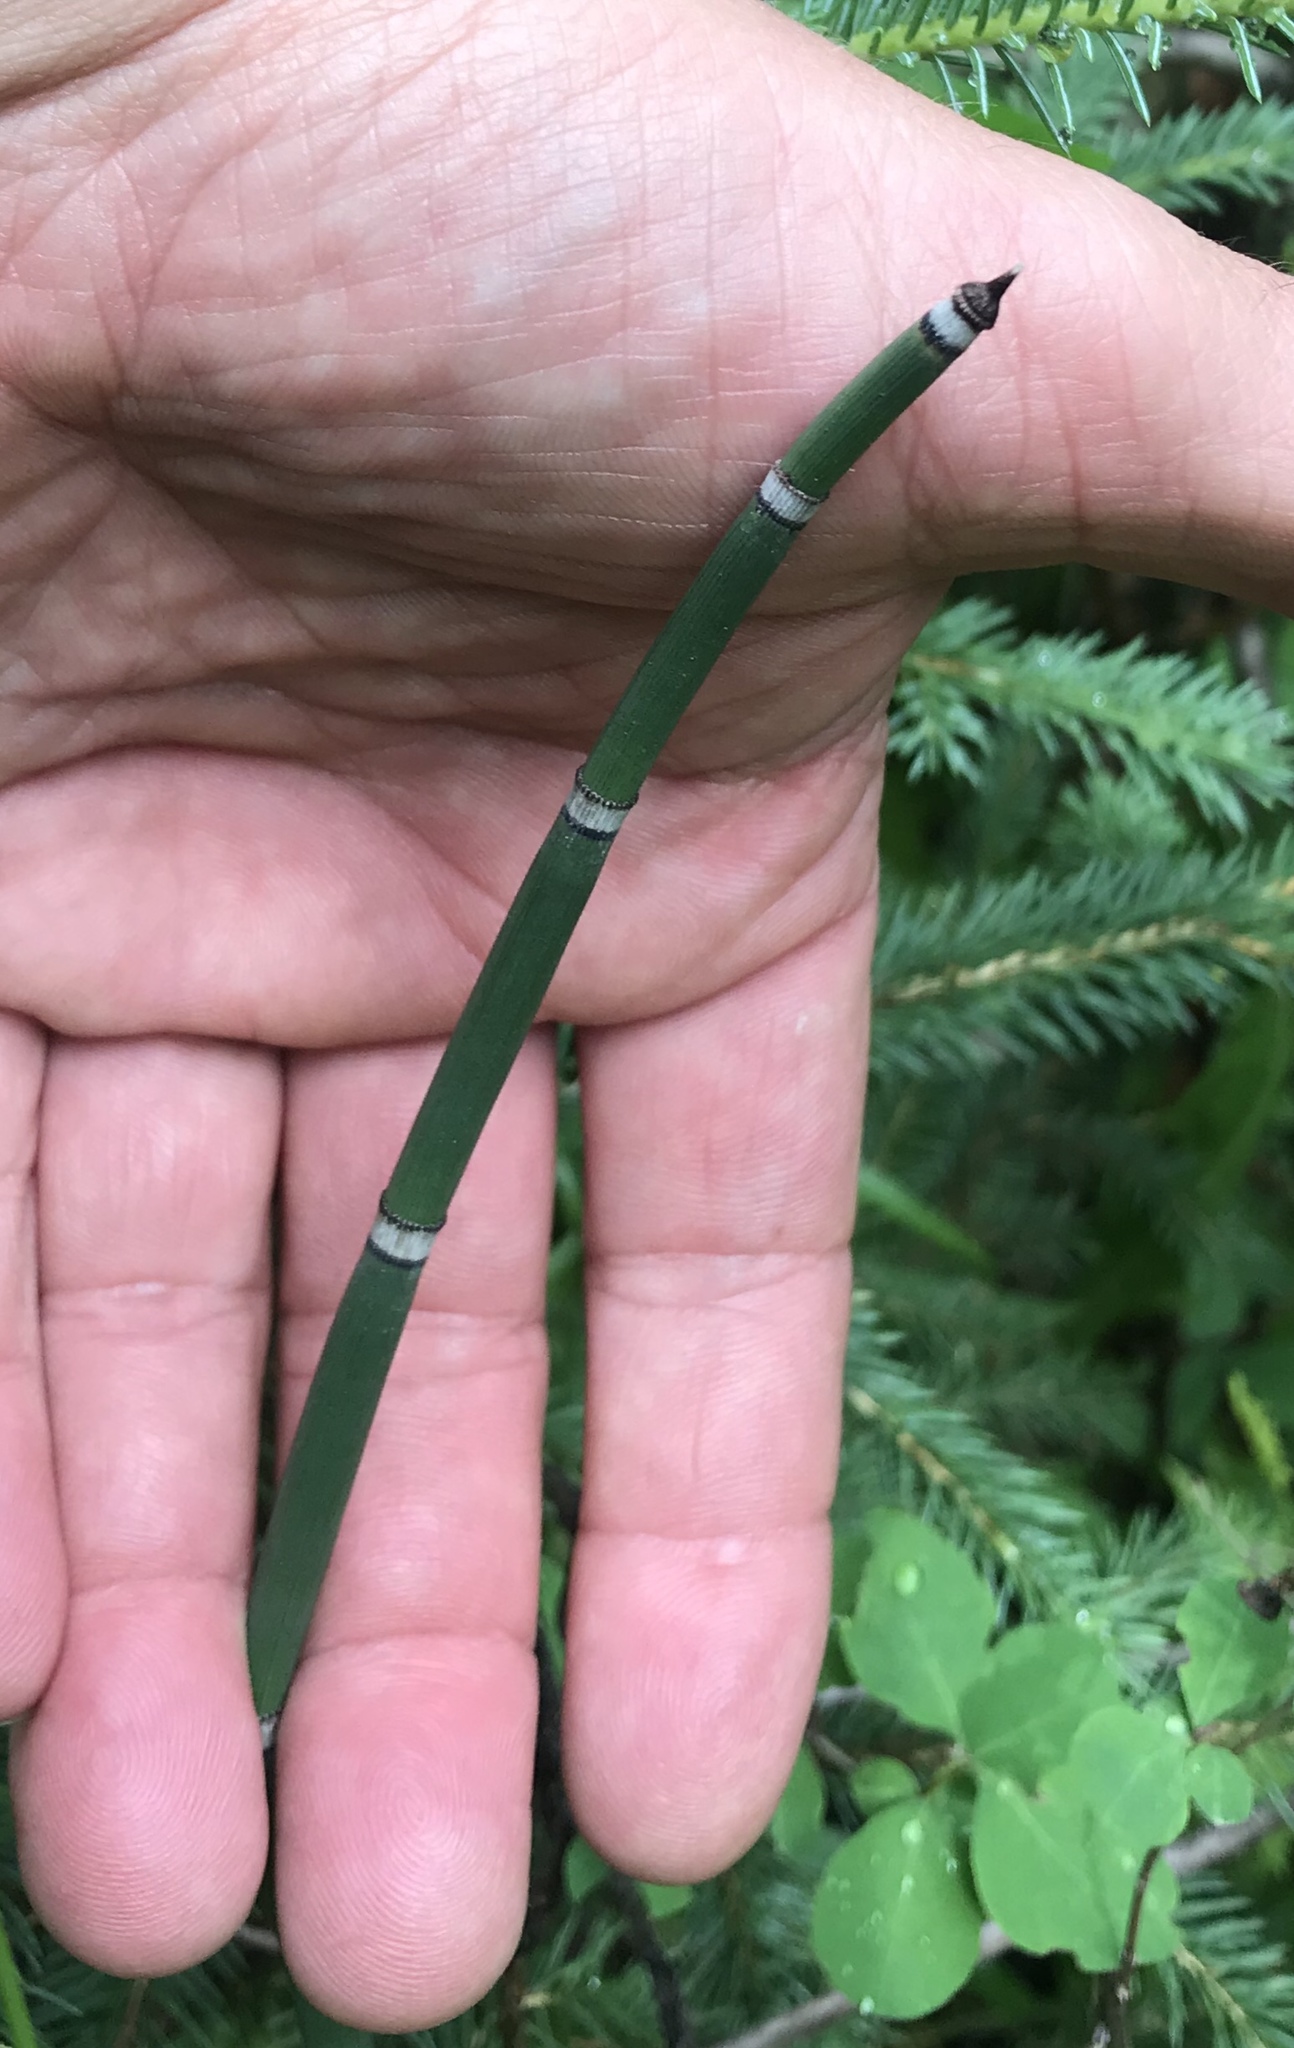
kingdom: Plantae
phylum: Tracheophyta
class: Polypodiopsida
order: Equisetales
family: Equisetaceae
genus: Equisetum
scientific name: Equisetum hyemale
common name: Rough horsetail
